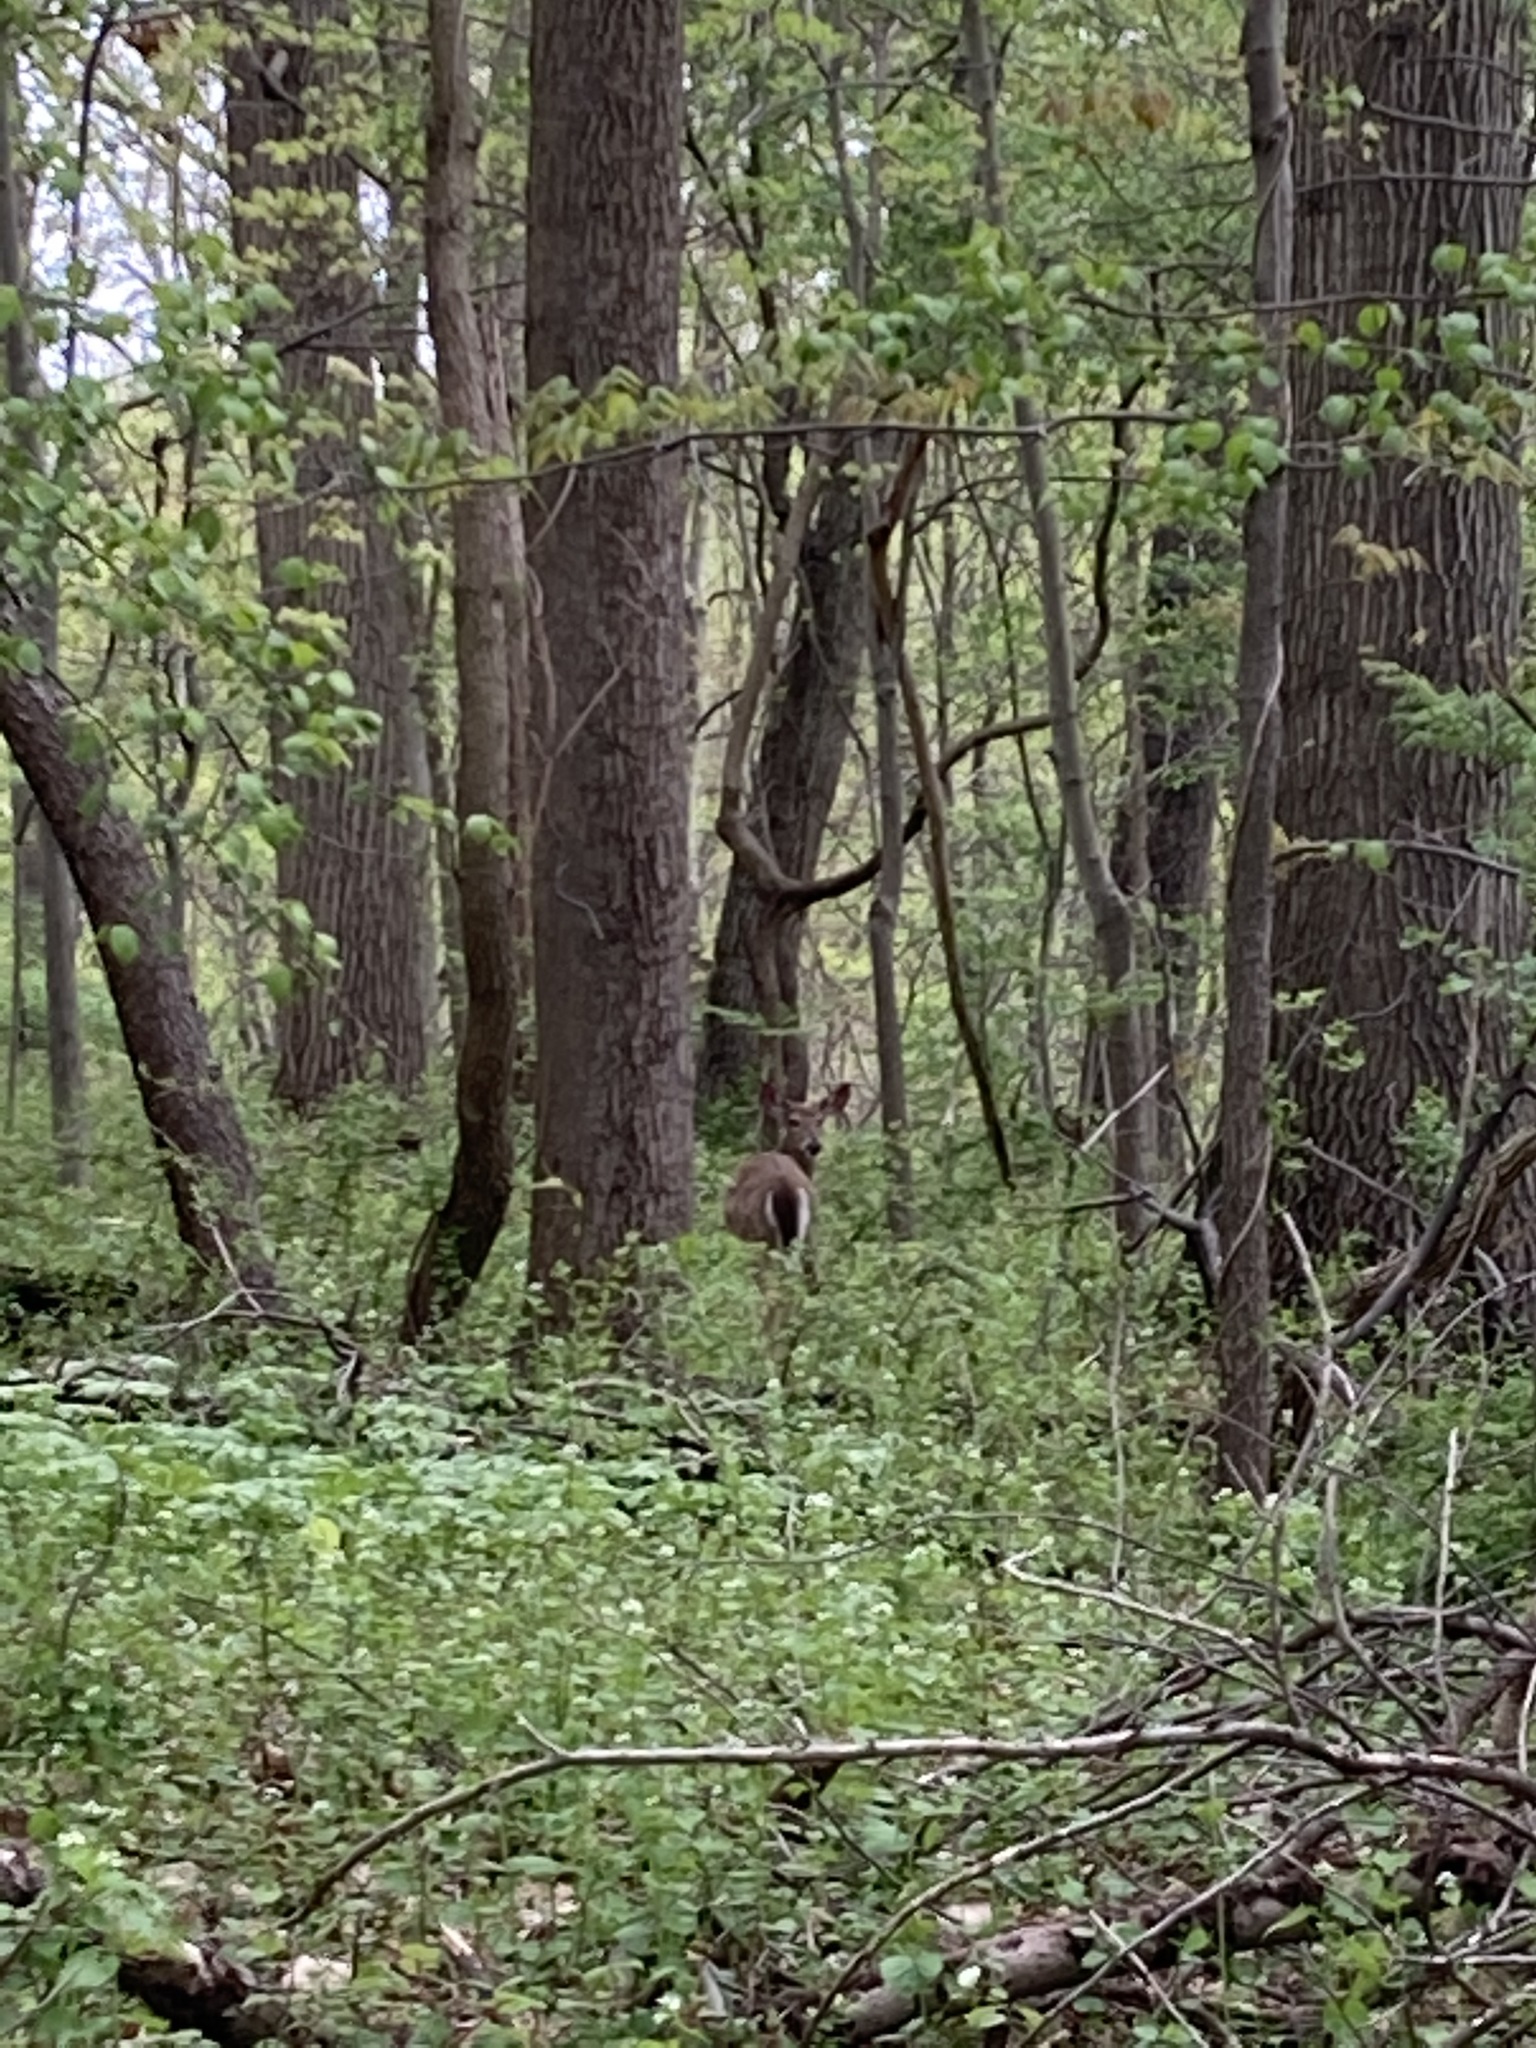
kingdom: Animalia
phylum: Chordata
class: Mammalia
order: Artiodactyla
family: Cervidae
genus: Odocoileus
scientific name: Odocoileus virginianus
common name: White-tailed deer
